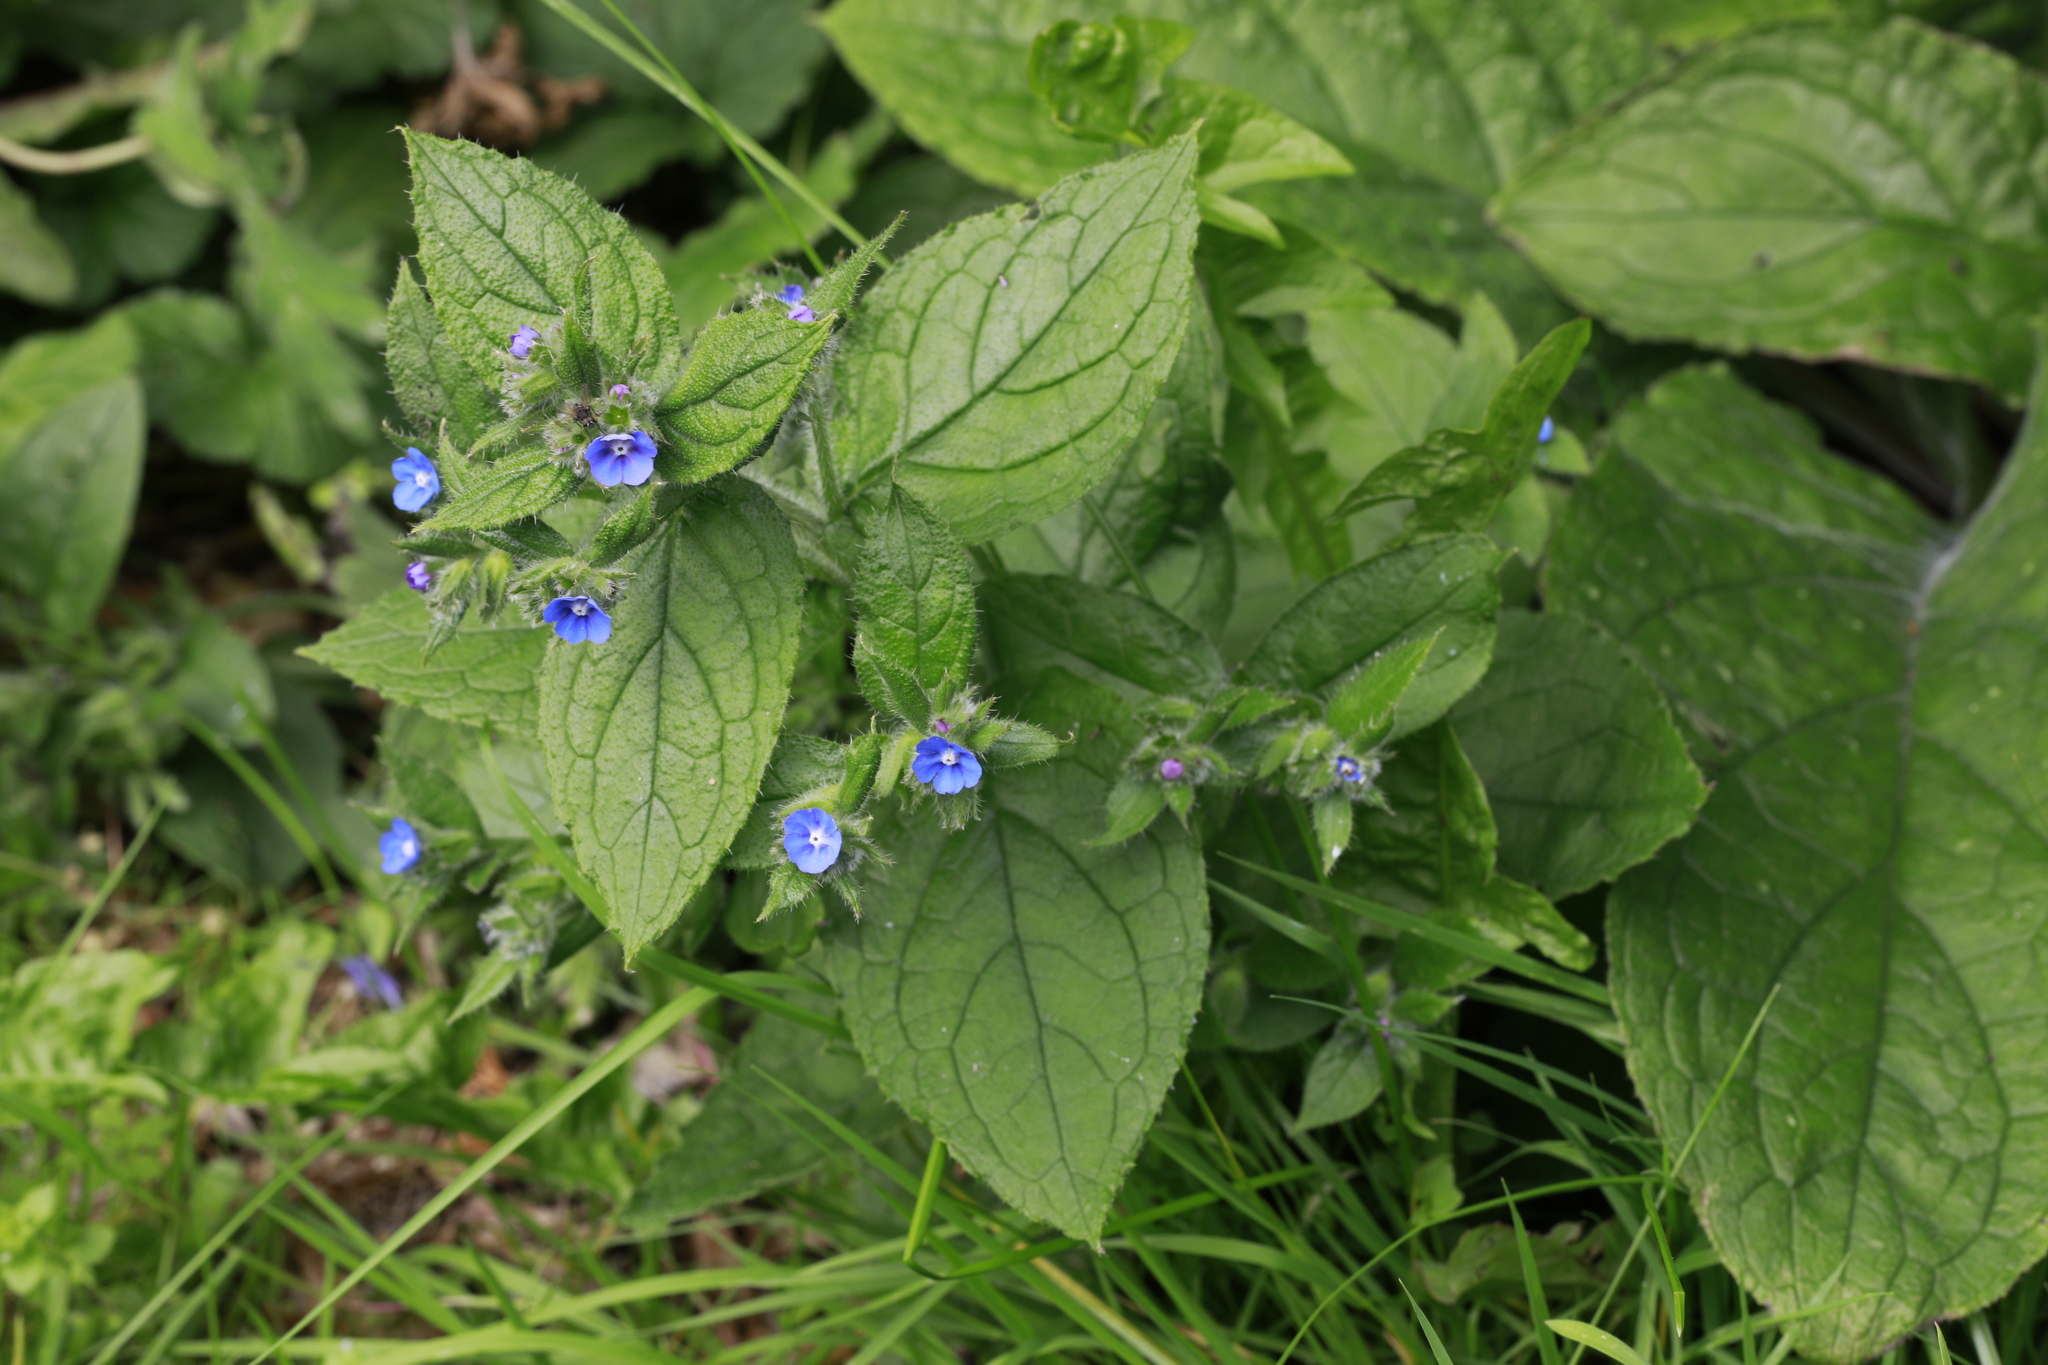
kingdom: Plantae
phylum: Tracheophyta
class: Magnoliopsida
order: Boraginales
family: Boraginaceae
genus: Pentaglottis
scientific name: Pentaglottis sempervirens
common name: Green alkanet
